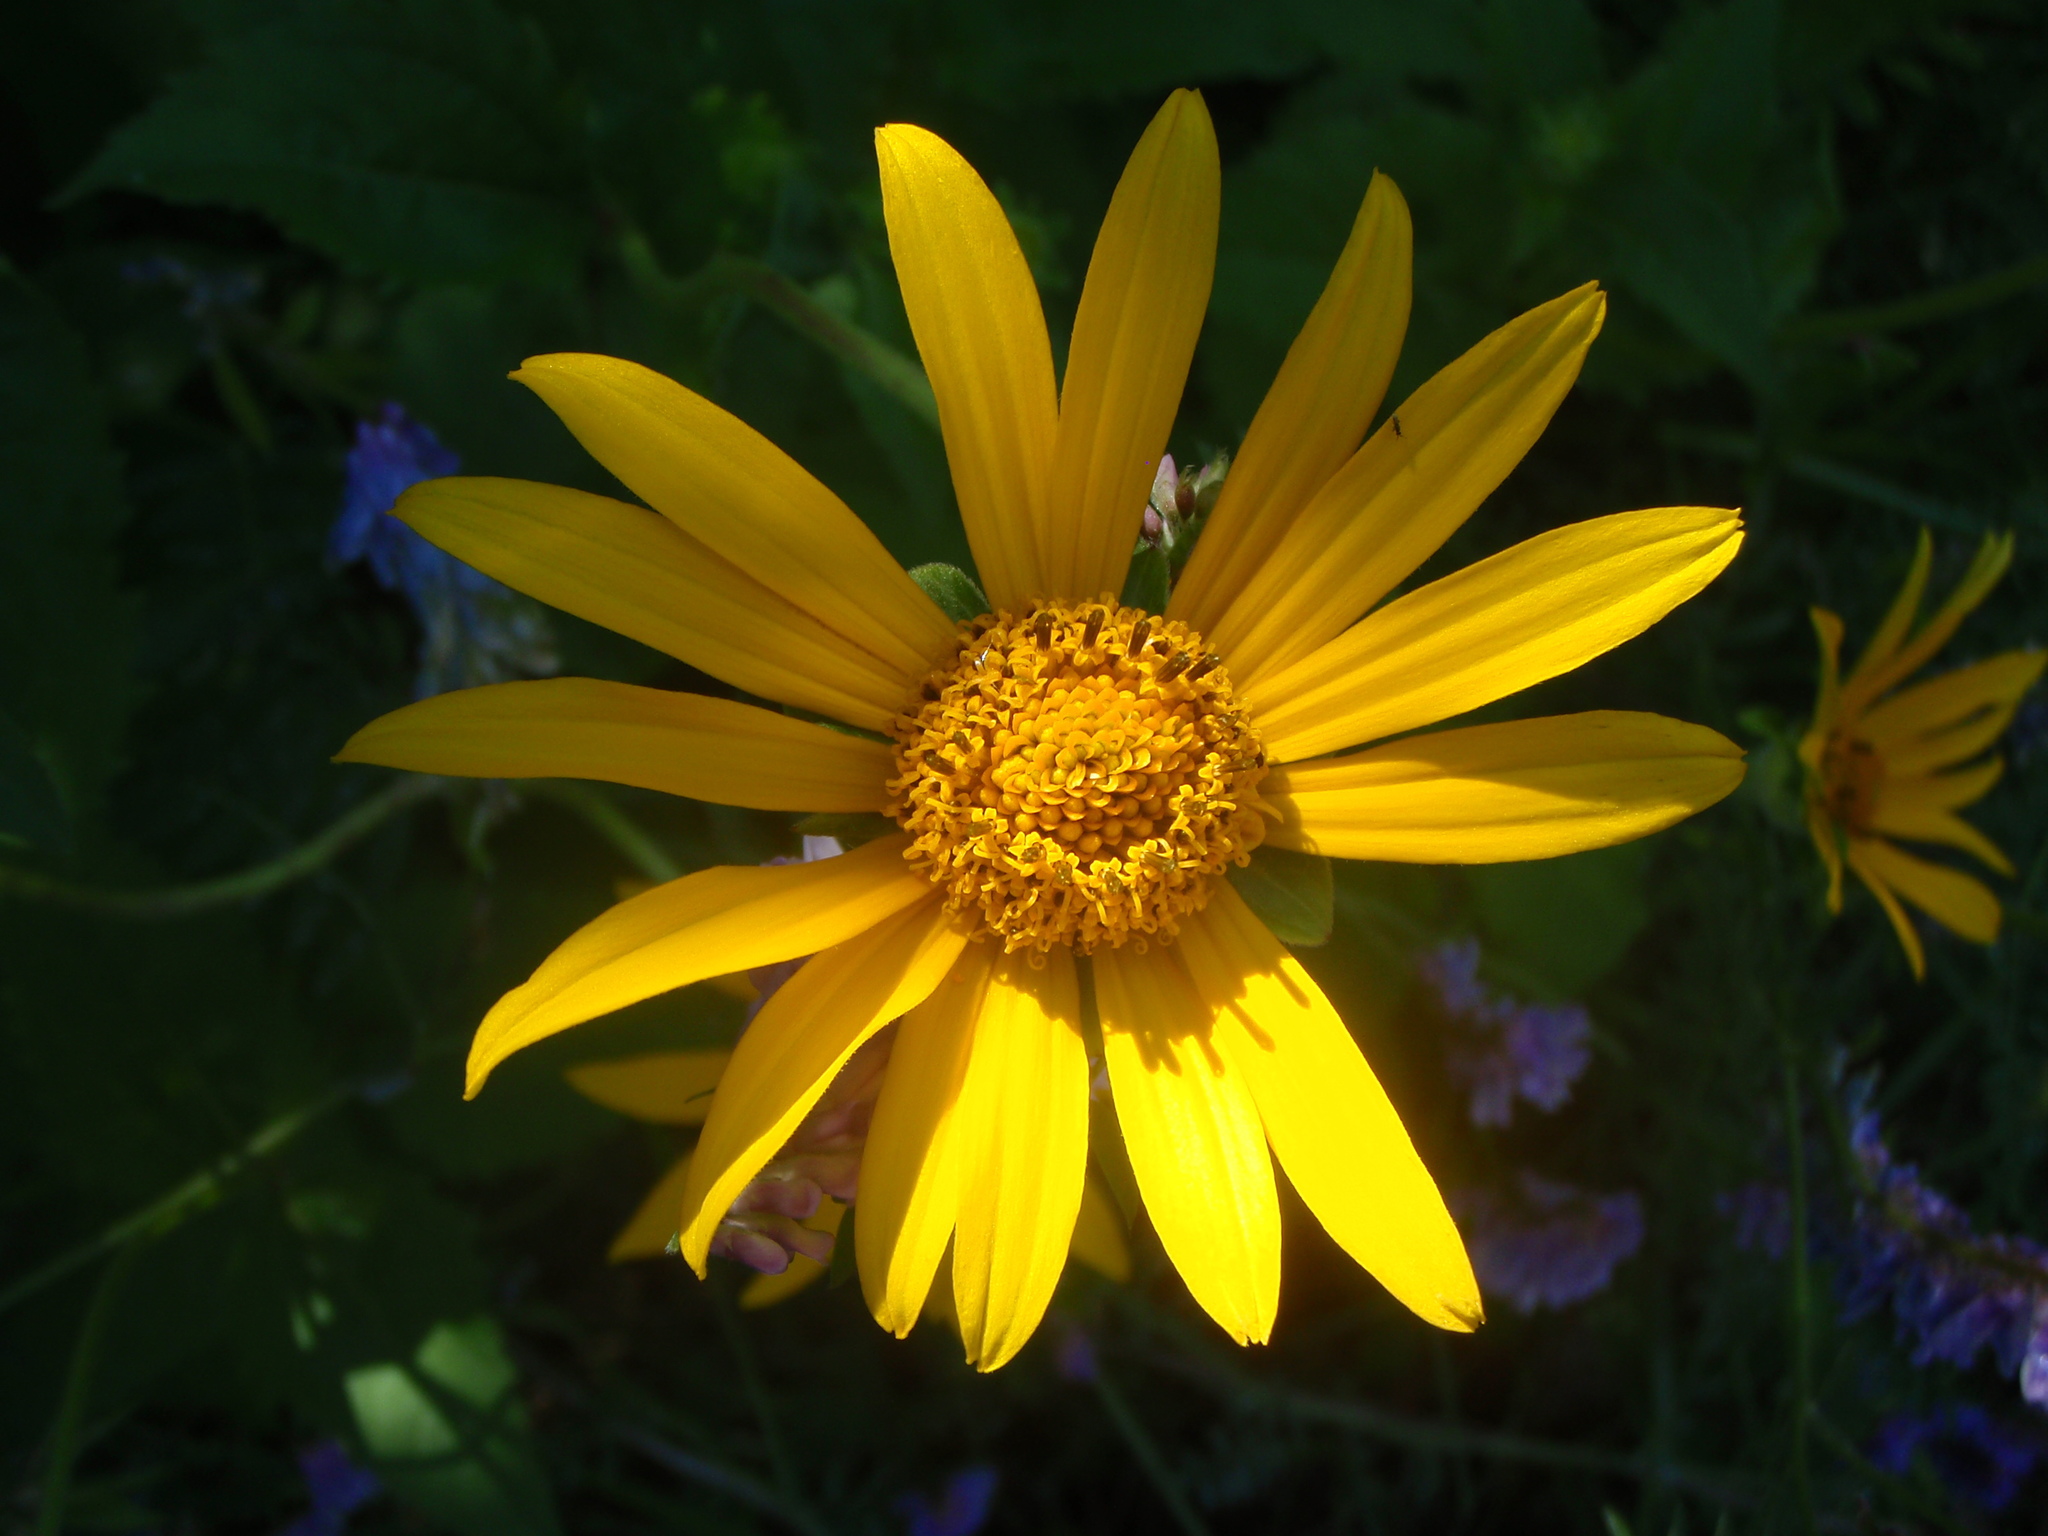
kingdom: Plantae
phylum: Tracheophyta
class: Magnoliopsida
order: Asterales
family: Asteraceae
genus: Heliopsis
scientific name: Heliopsis helianthoides
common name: False sunflower
